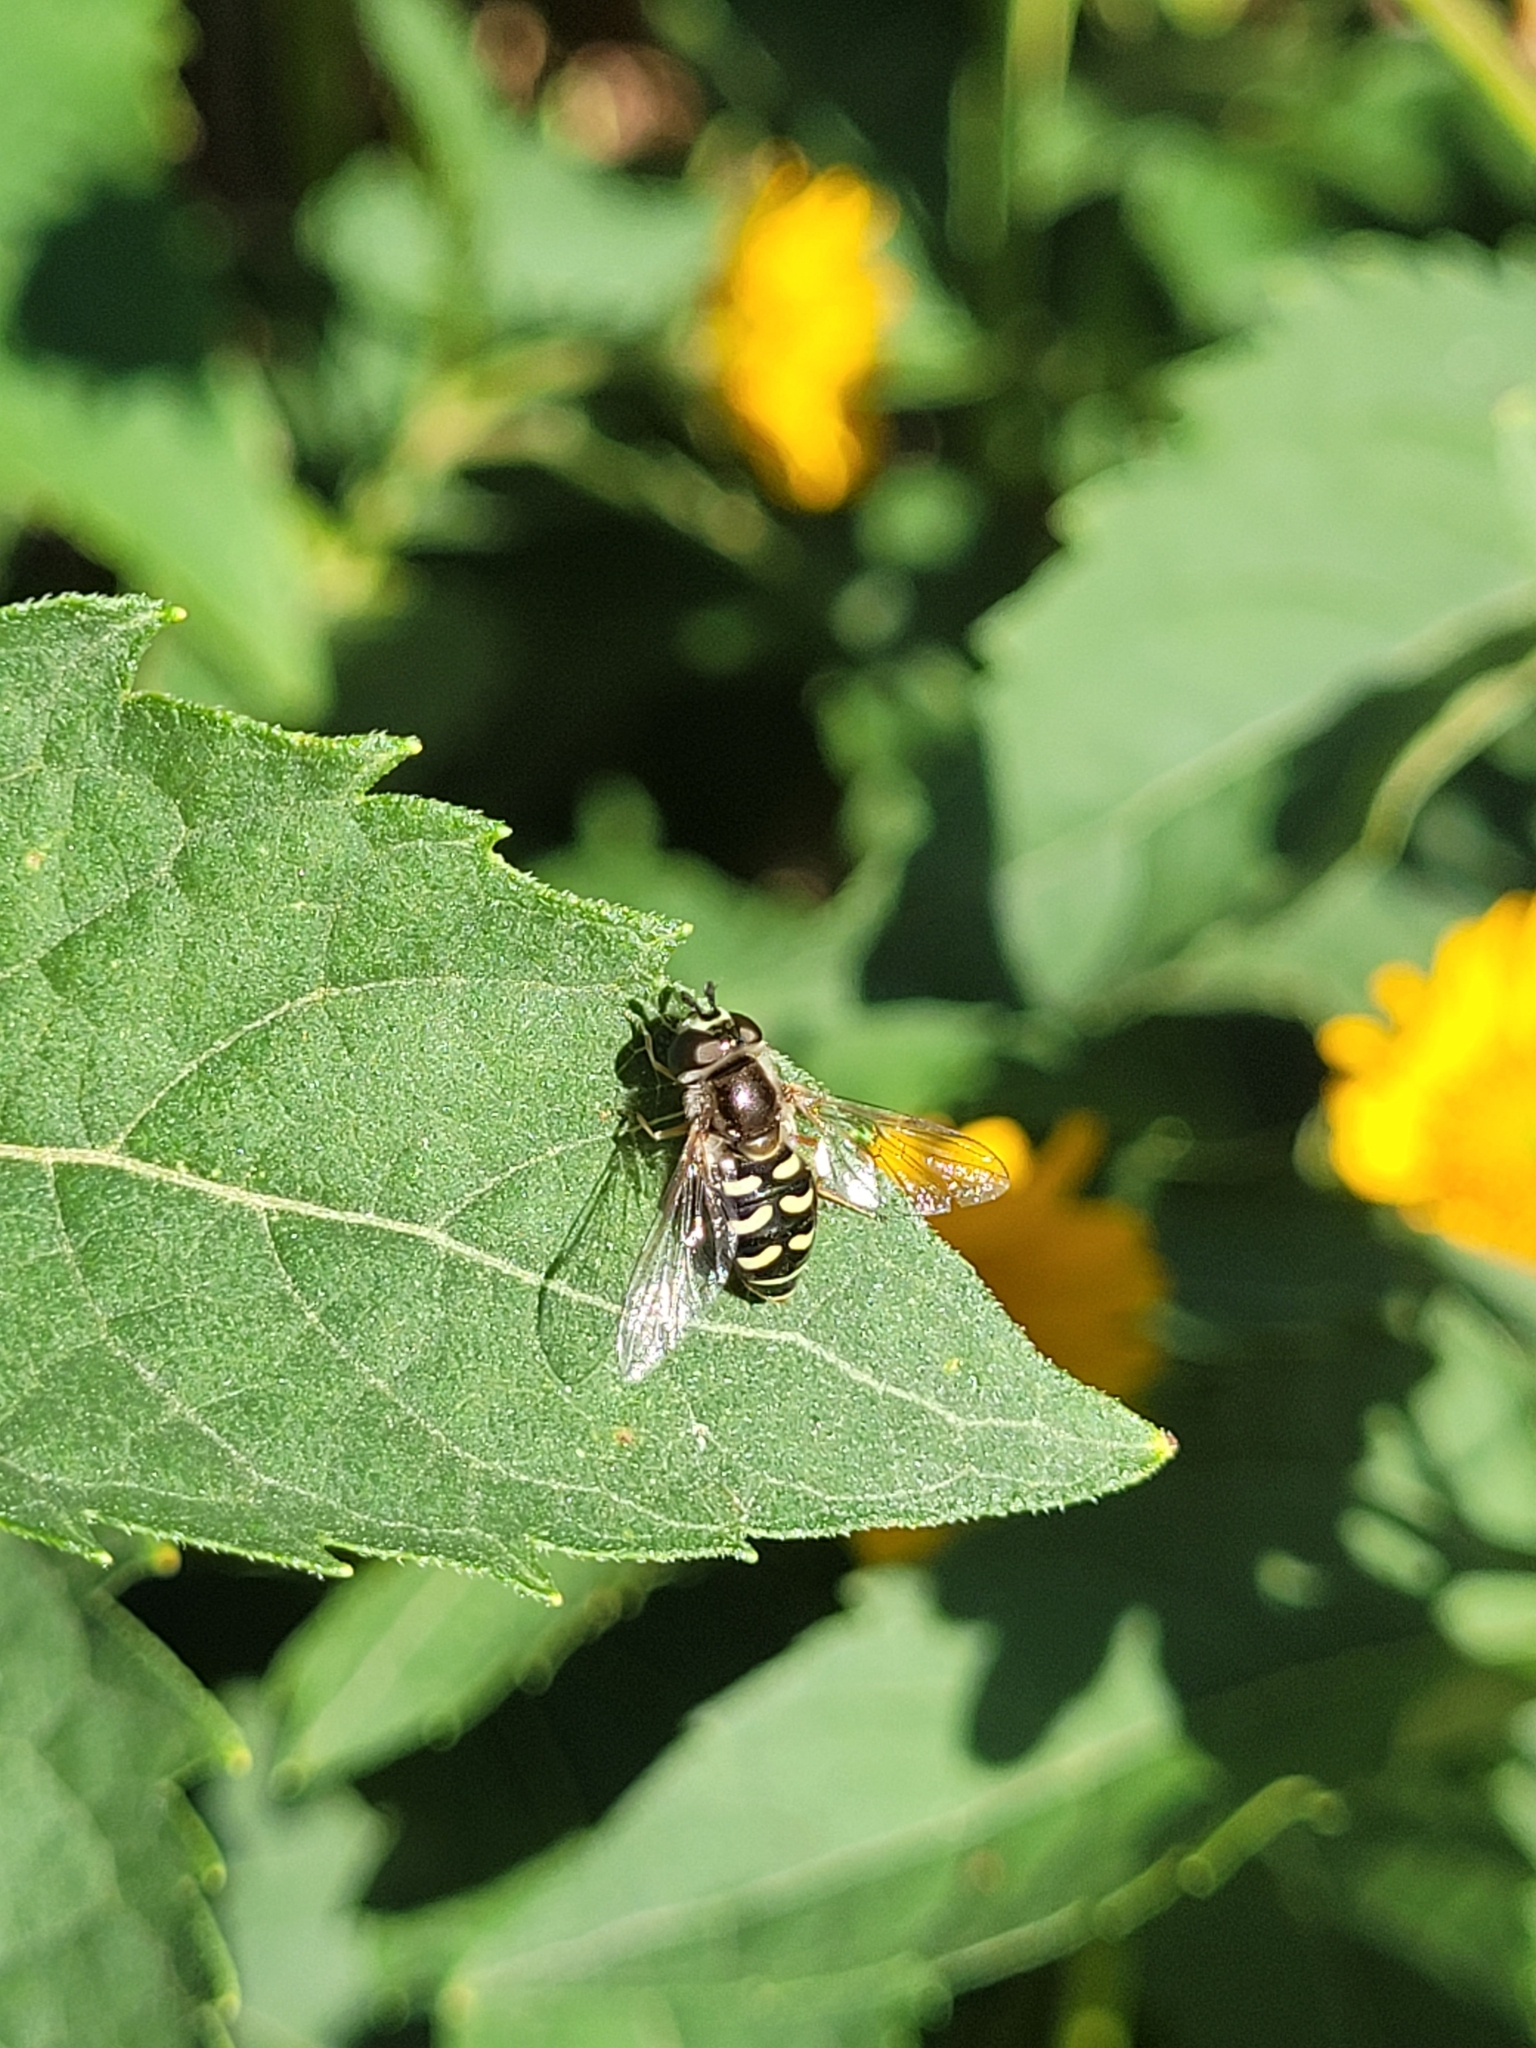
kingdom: Animalia
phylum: Arthropoda
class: Insecta
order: Diptera
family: Syrphidae
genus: Eupeodes
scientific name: Eupeodes volucris
